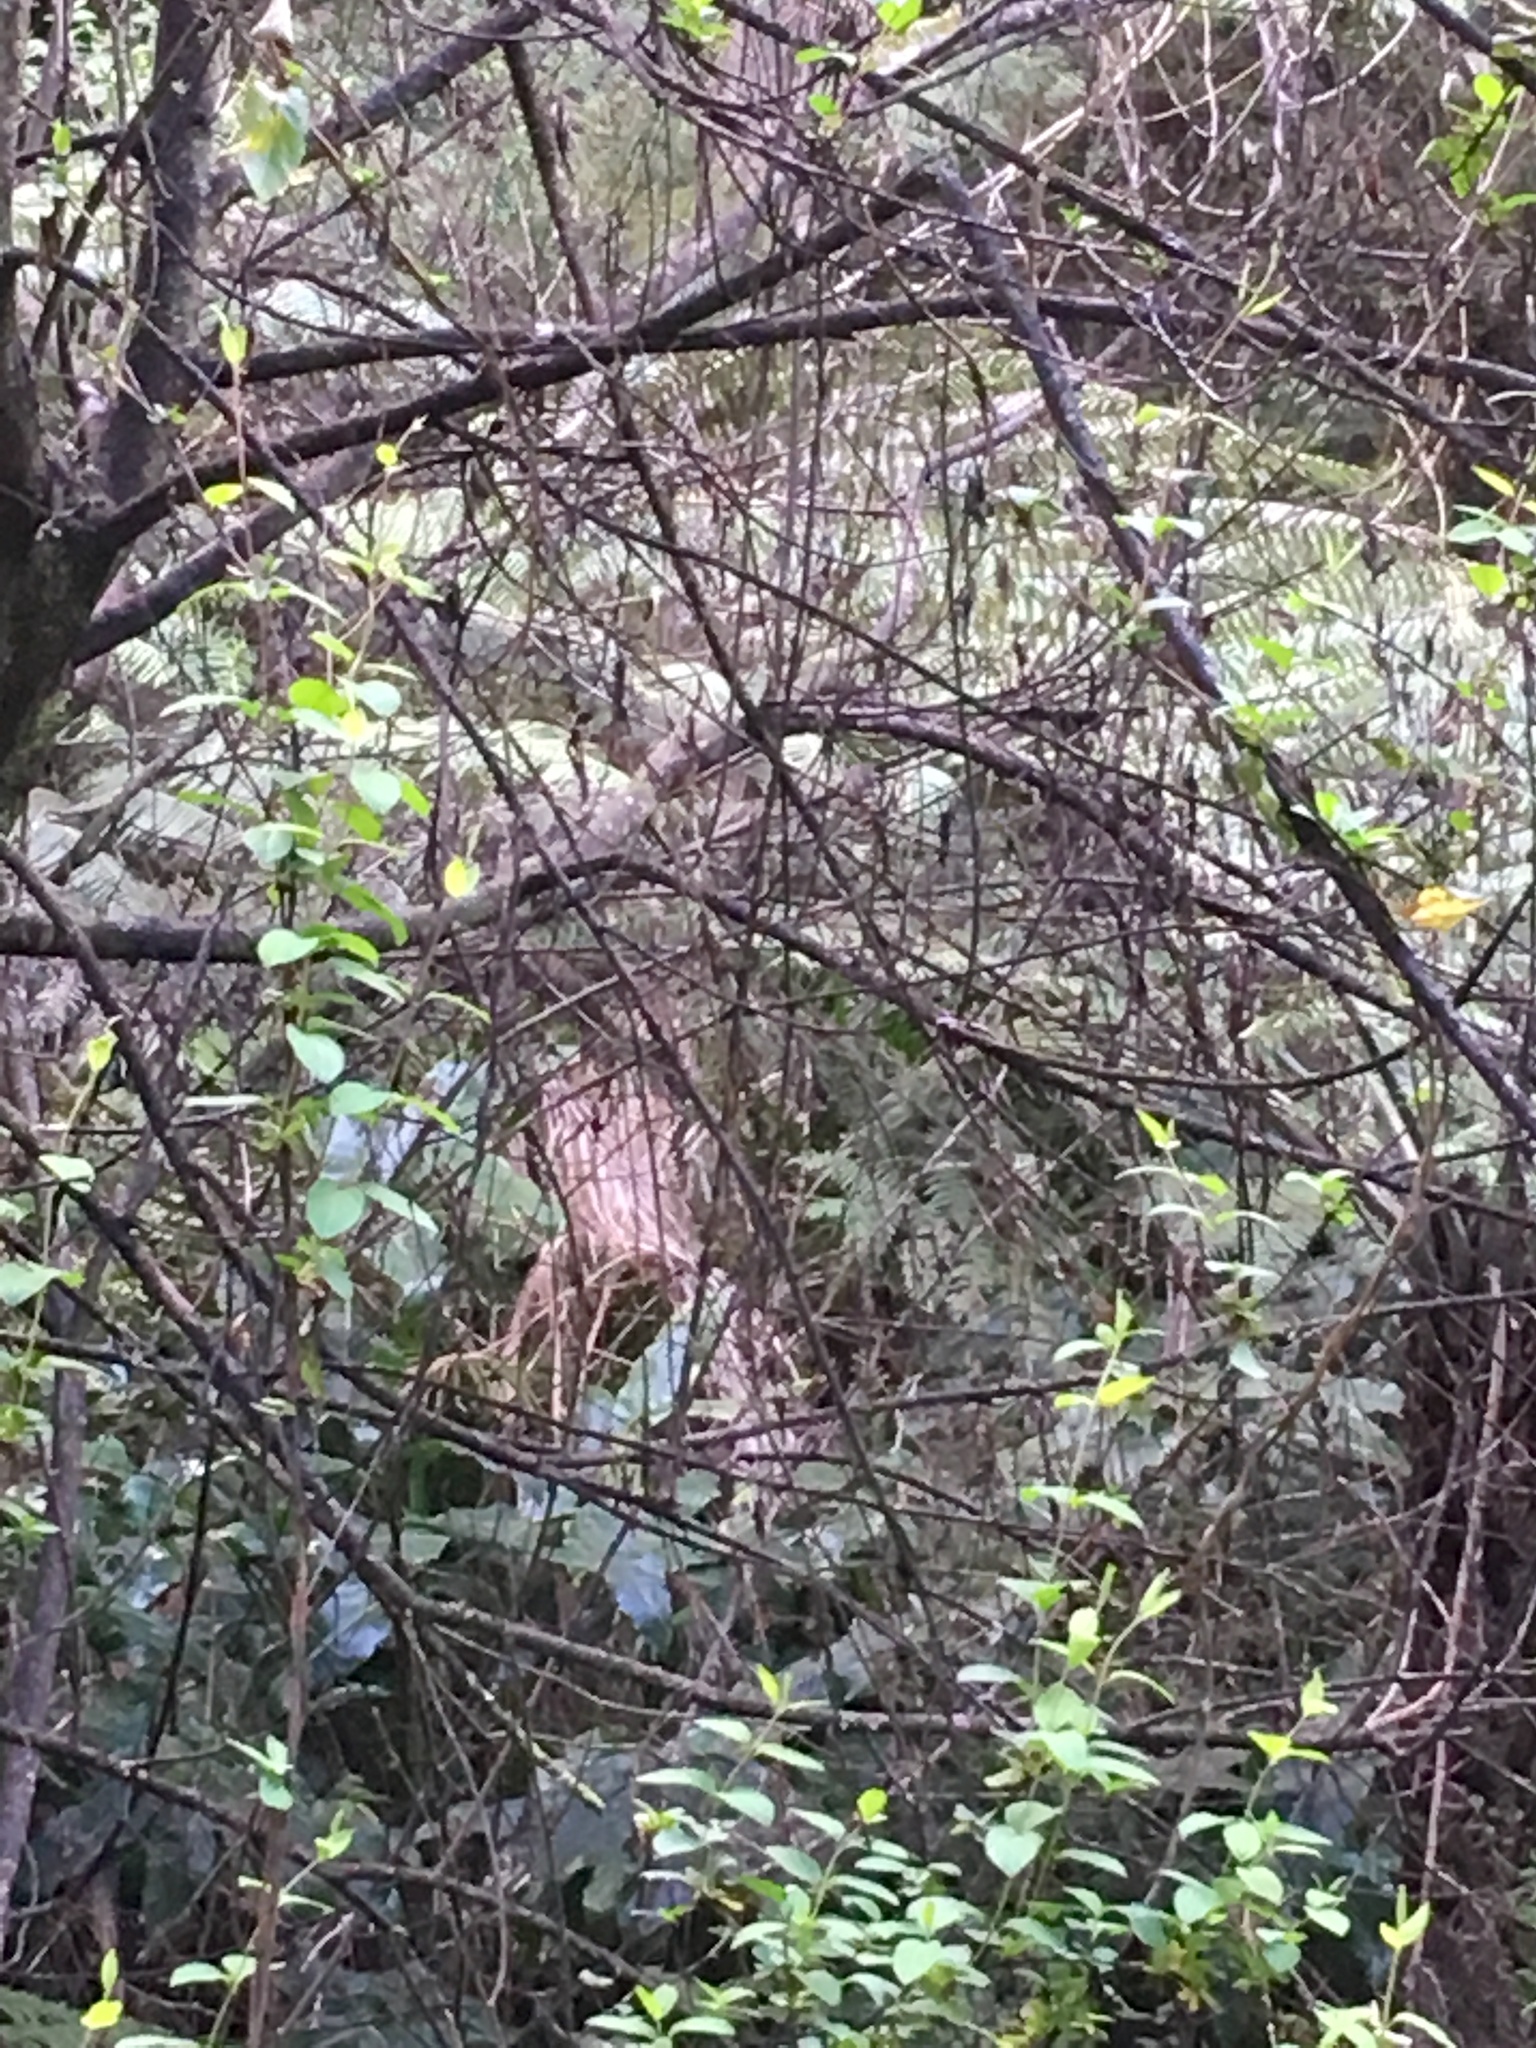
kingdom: Plantae
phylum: Tracheophyta
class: Magnoliopsida
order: Dipsacales
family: Caprifoliaceae
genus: Lonicera
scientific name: Lonicera japonica
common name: Japanese honeysuckle
